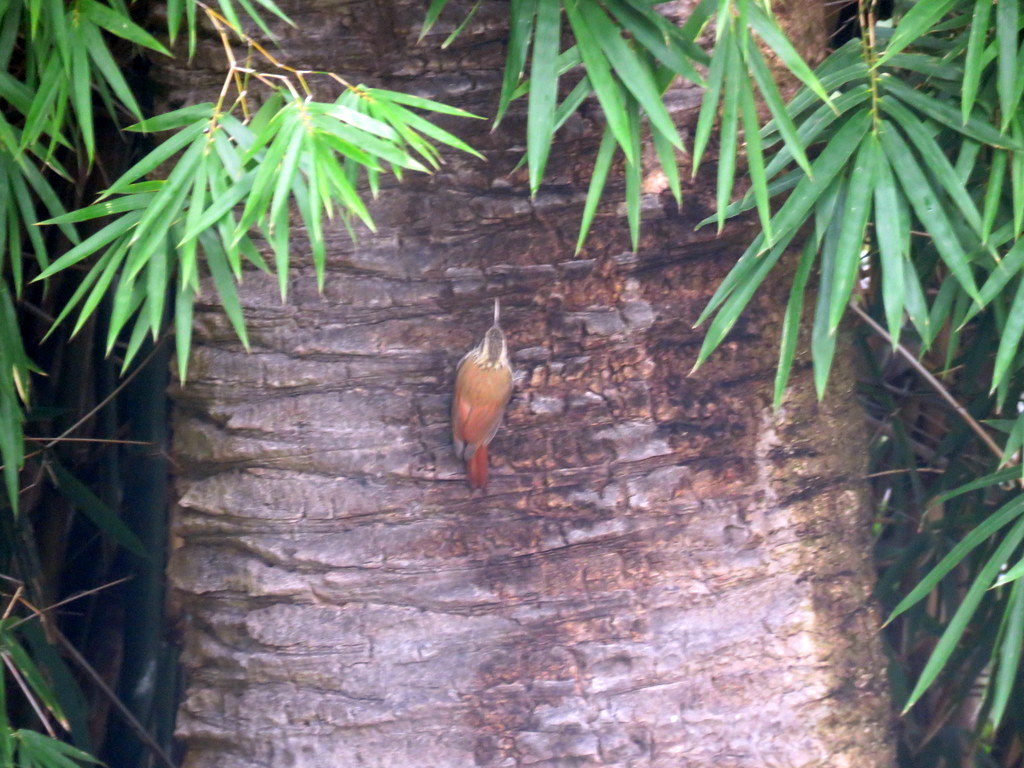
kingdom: Animalia
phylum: Chordata
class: Aves
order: Passeriformes
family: Furnariidae
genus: Lepidocolaptes
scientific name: Lepidocolaptes angustirostris
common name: Narrow-billed woodcreeper
